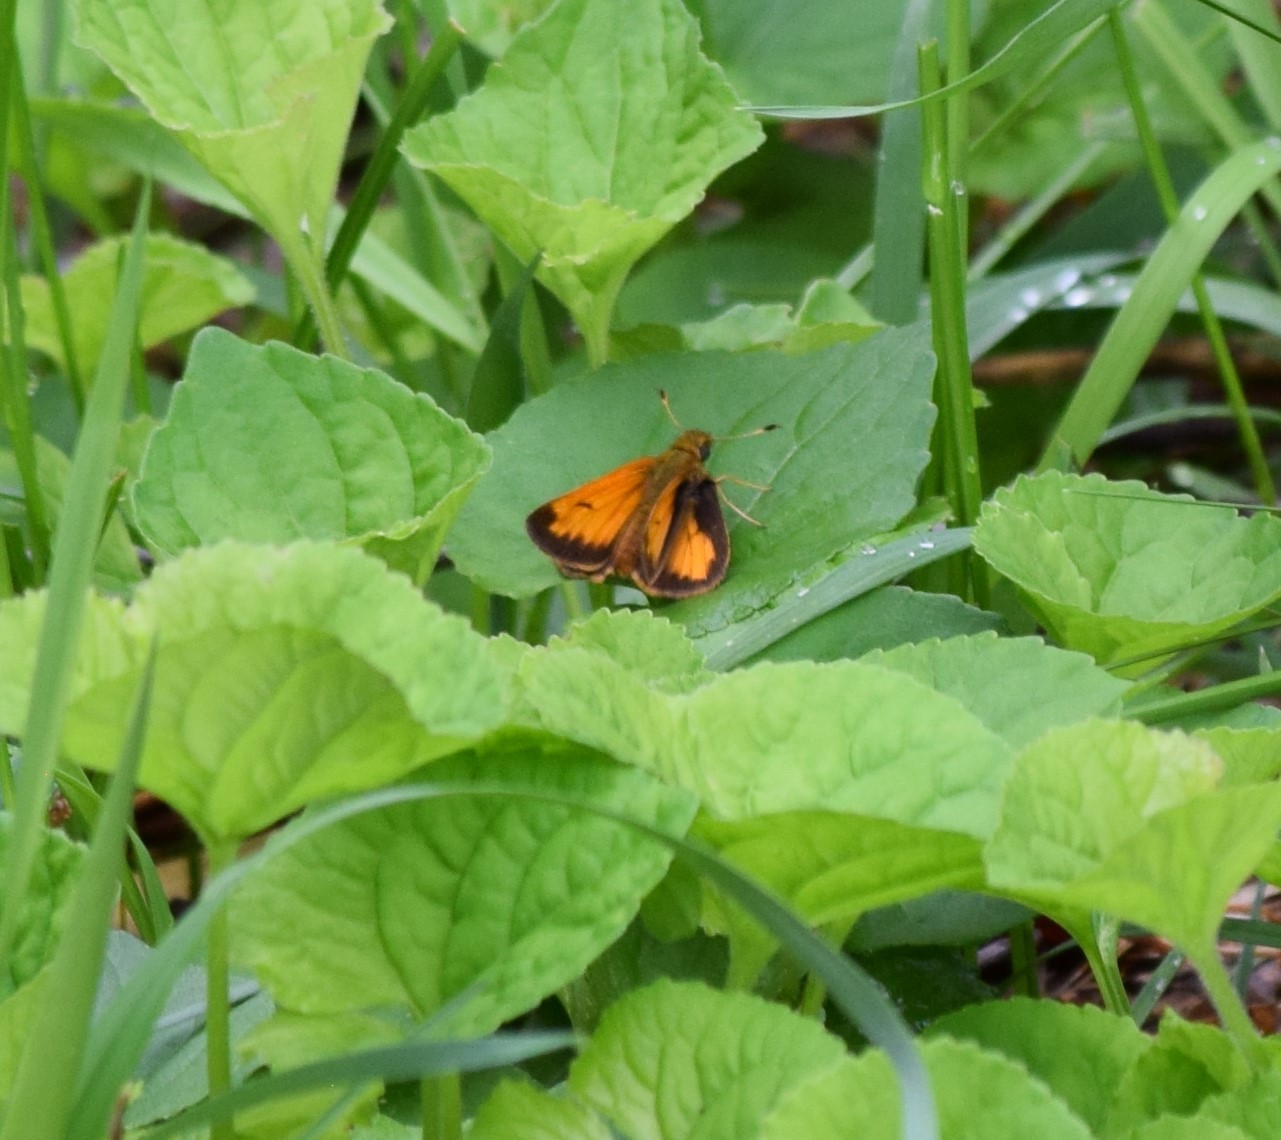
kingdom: Animalia
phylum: Arthropoda
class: Insecta
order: Lepidoptera
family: Hesperiidae
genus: Lon
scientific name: Lon hobomok
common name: Hobomok skipper
